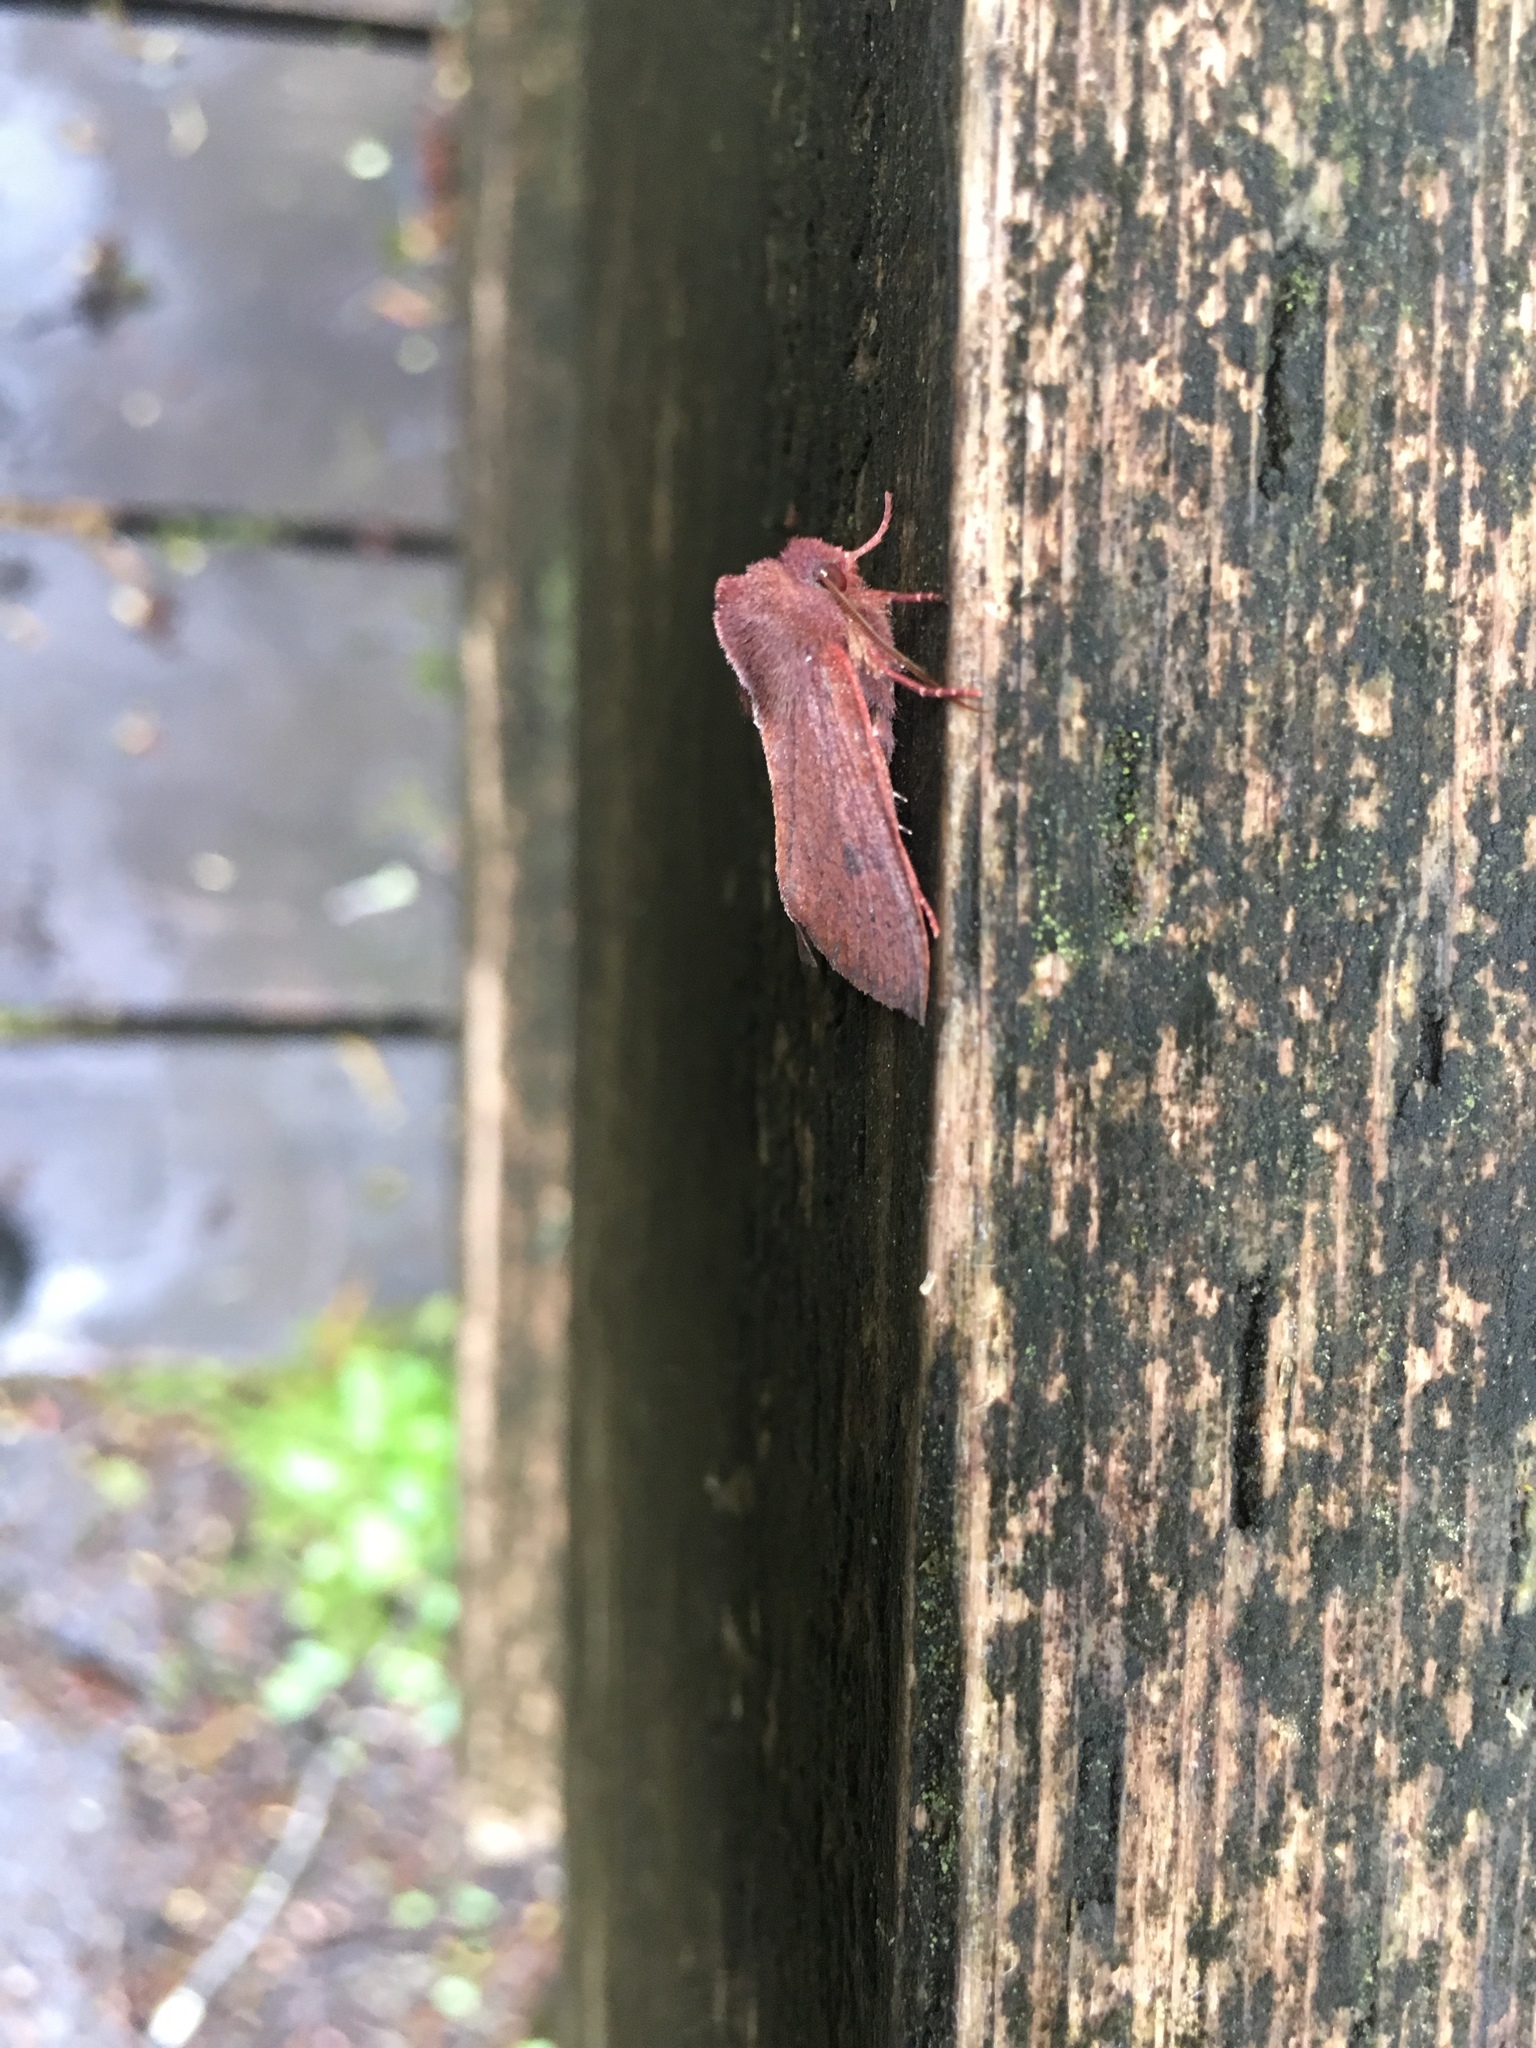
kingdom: Animalia
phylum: Arthropoda
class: Insecta
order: Lepidoptera
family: Noctuidae
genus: Orthosia
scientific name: Orthosia transparens
